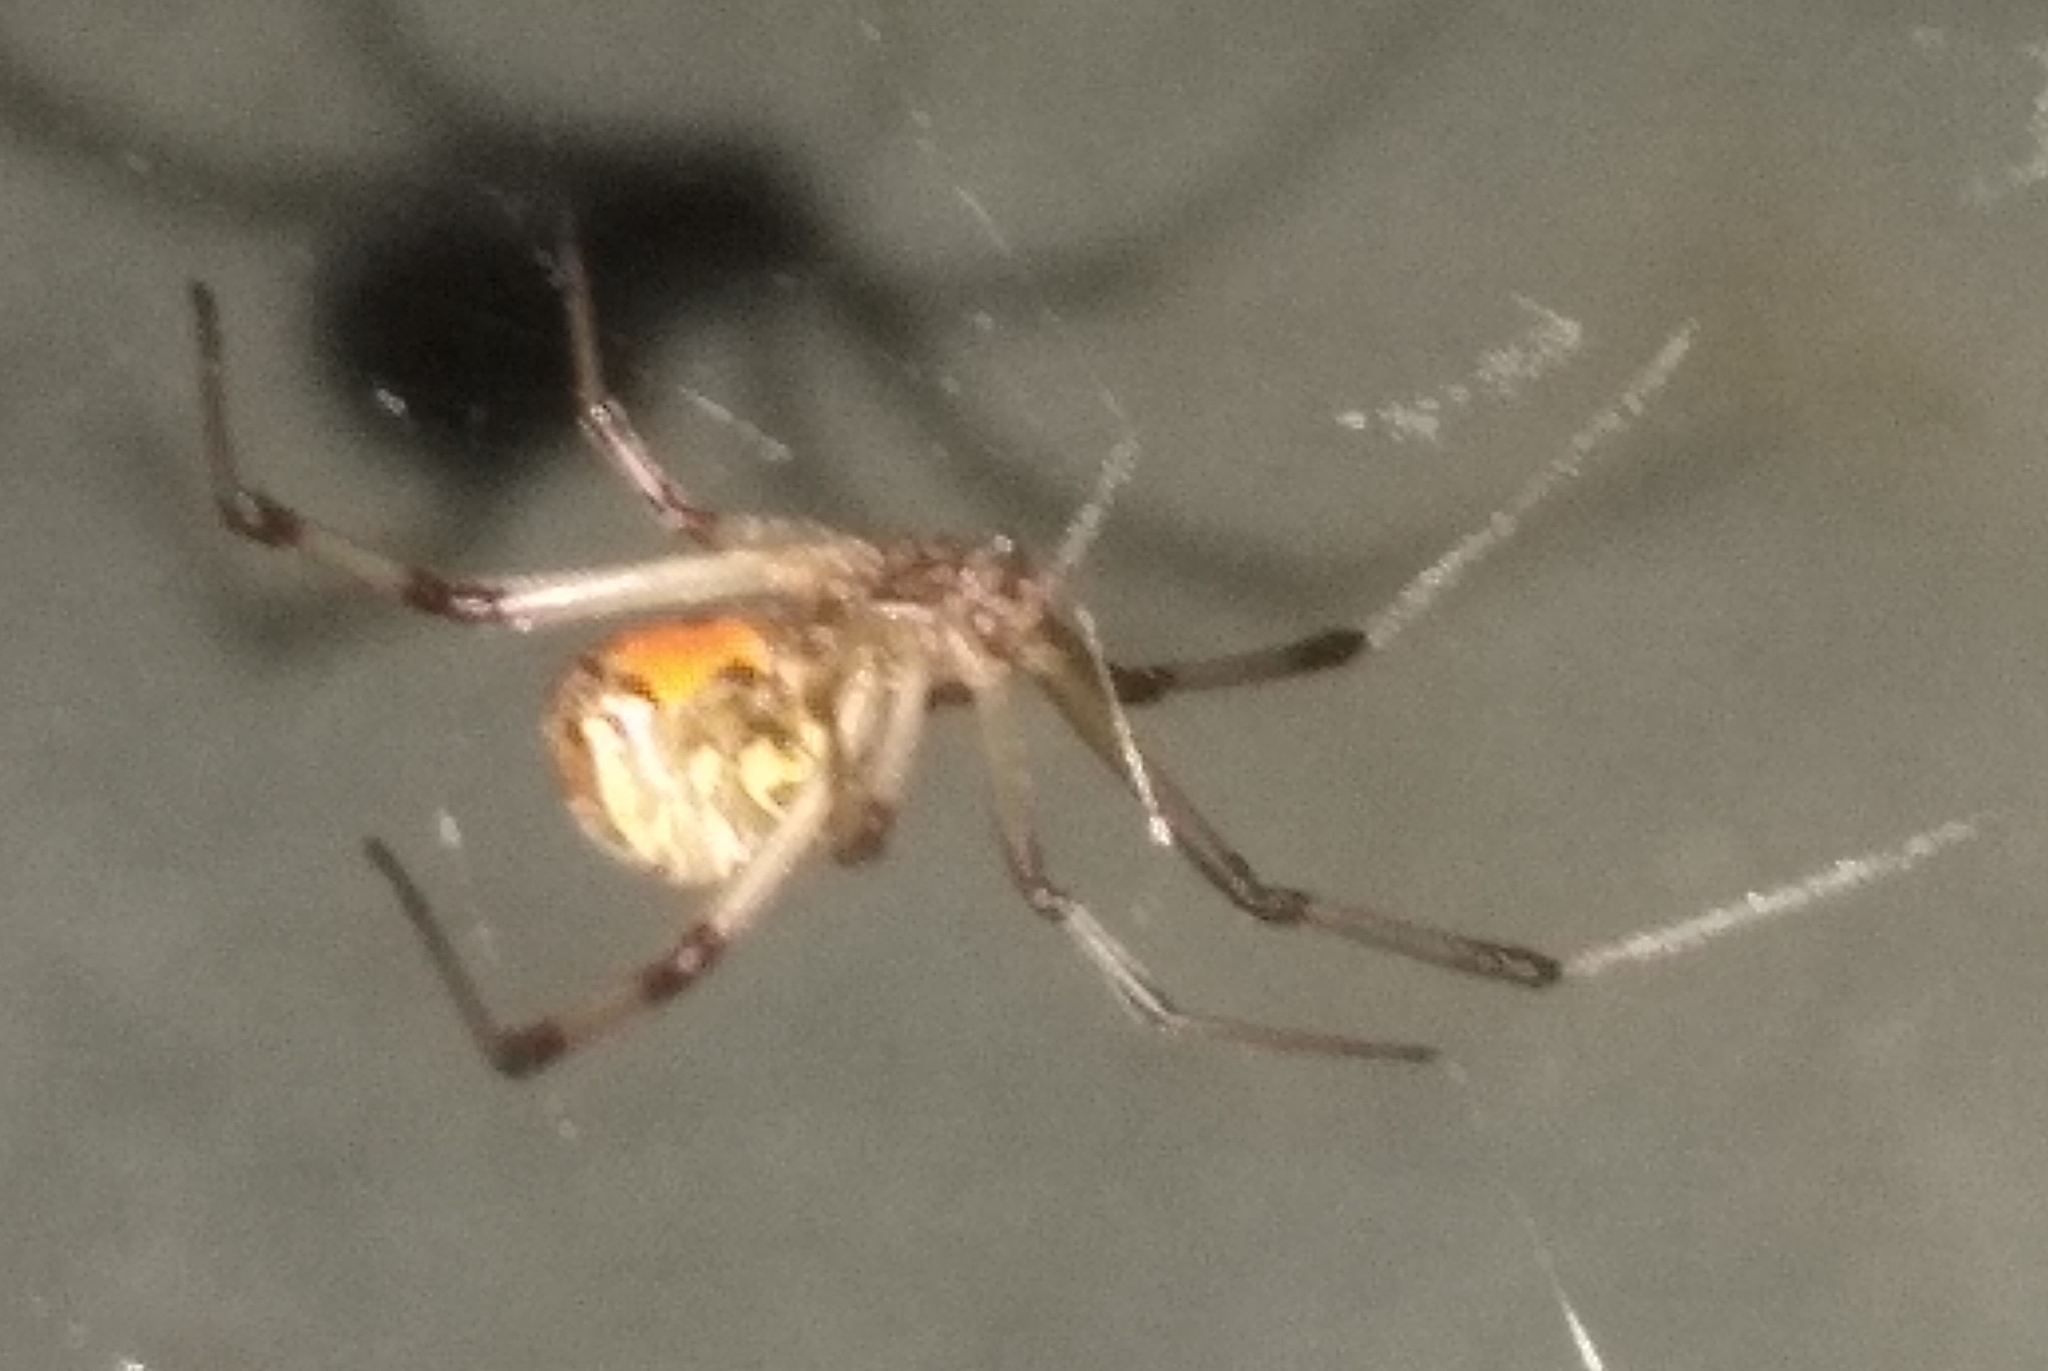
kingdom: Animalia
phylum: Arthropoda
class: Arachnida
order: Araneae
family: Theridiidae
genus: Latrodectus
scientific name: Latrodectus geometricus
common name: Brown widow spider
